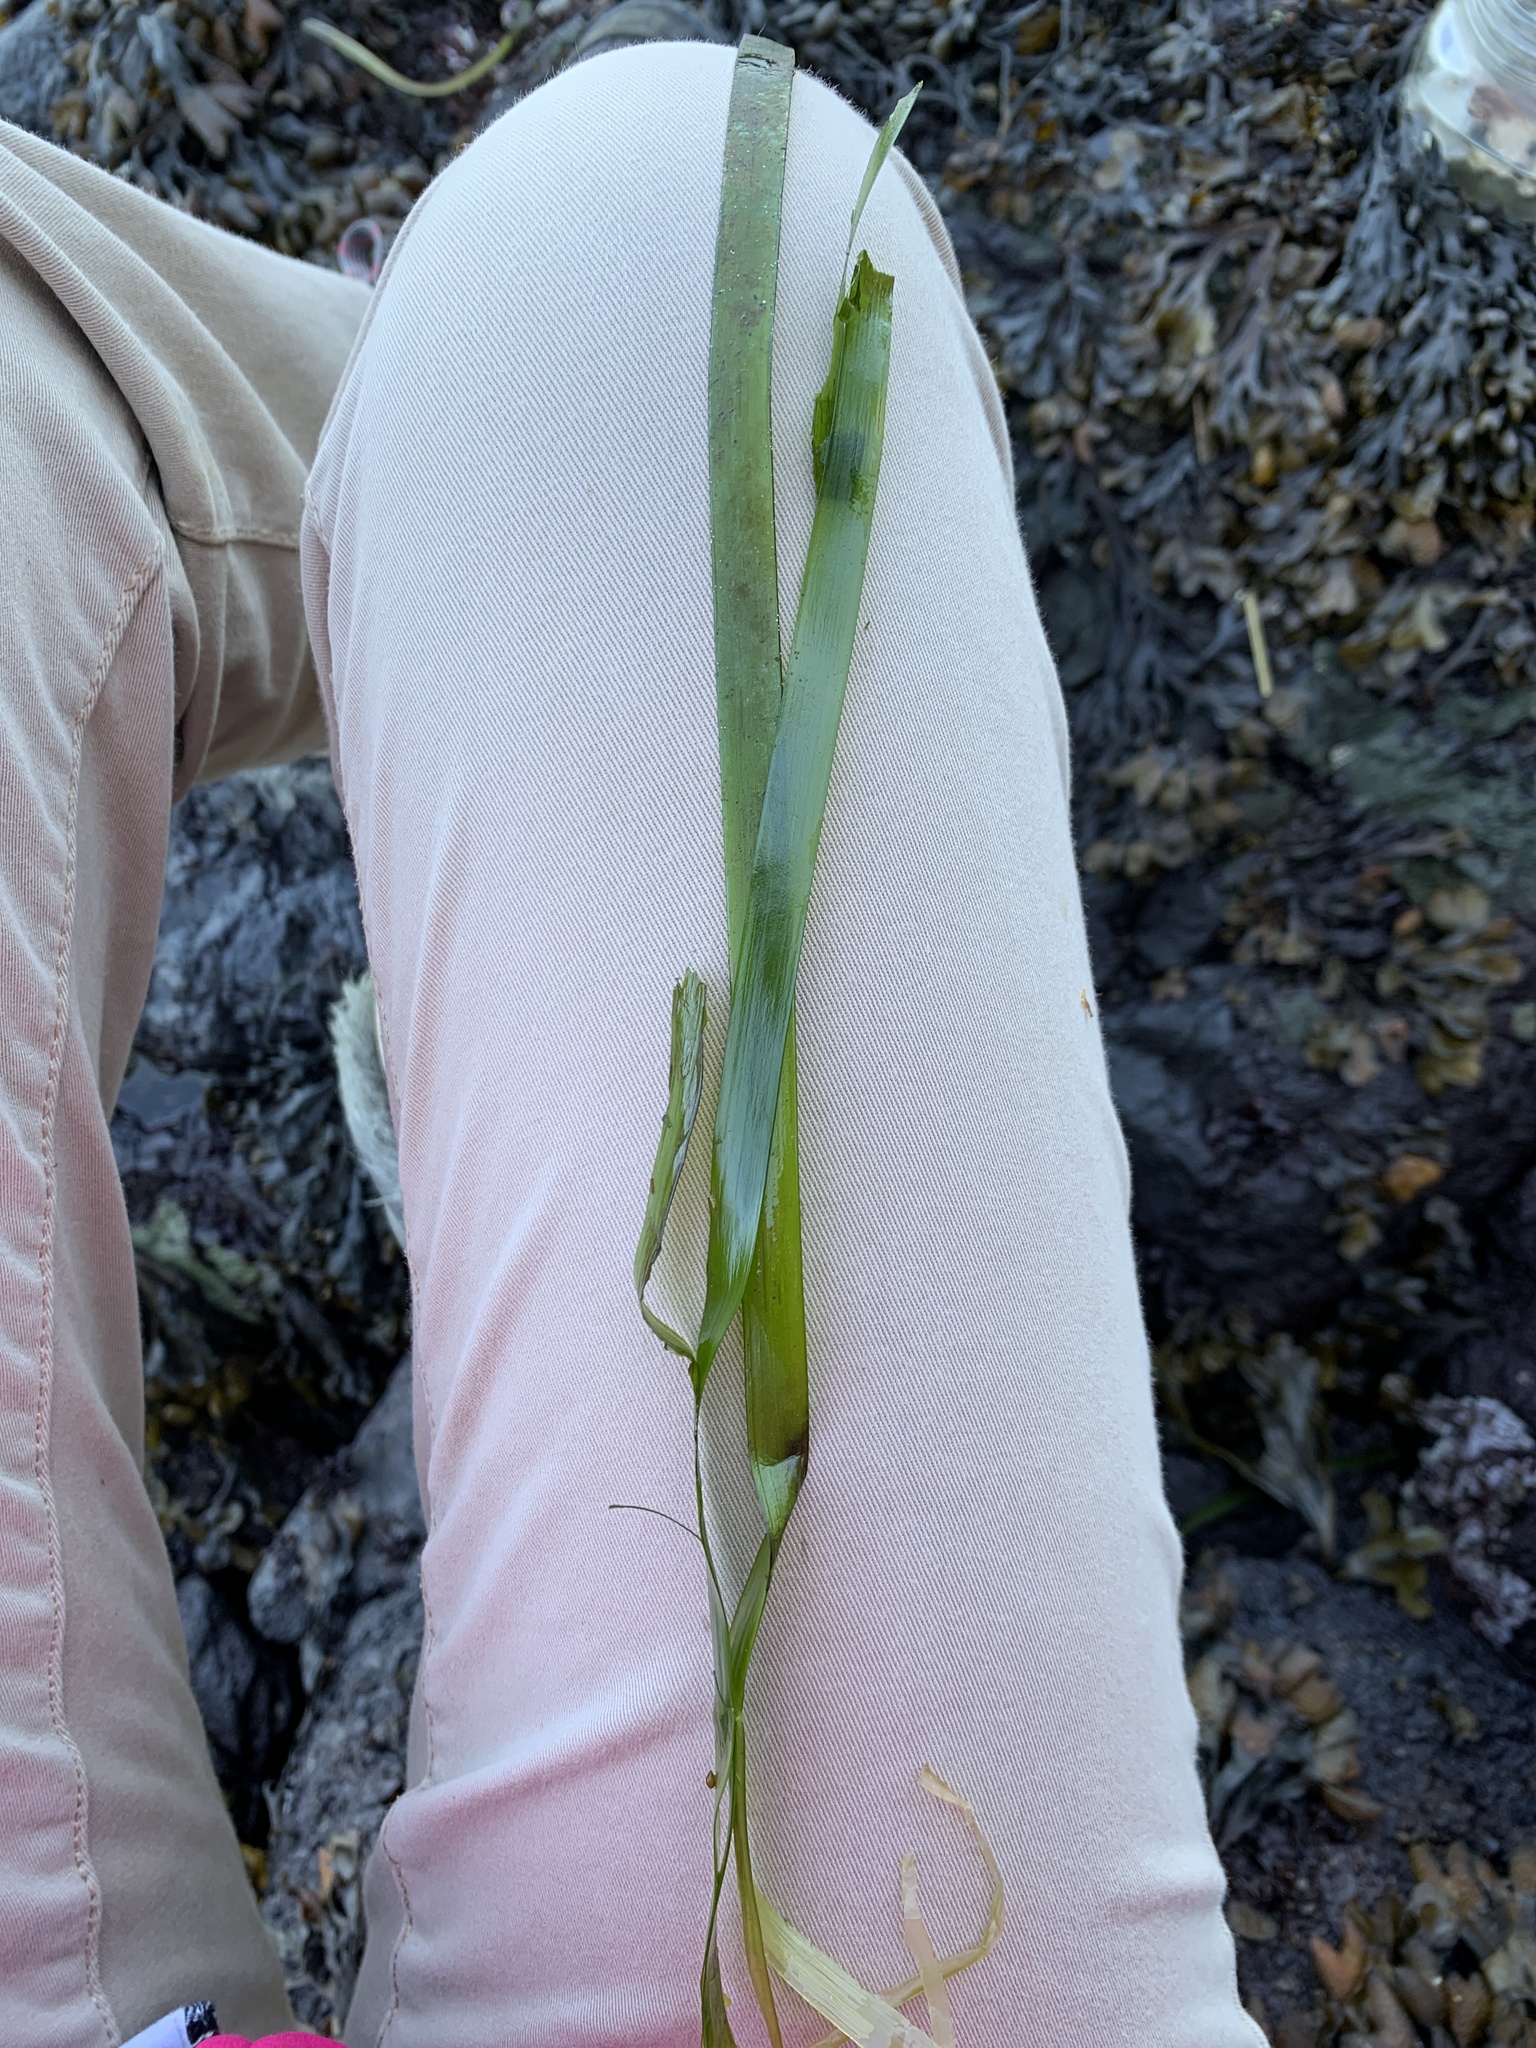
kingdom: Plantae
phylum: Tracheophyta
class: Liliopsida
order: Alismatales
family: Zosteraceae
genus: Zostera
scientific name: Zostera marina
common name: Eelgrass
